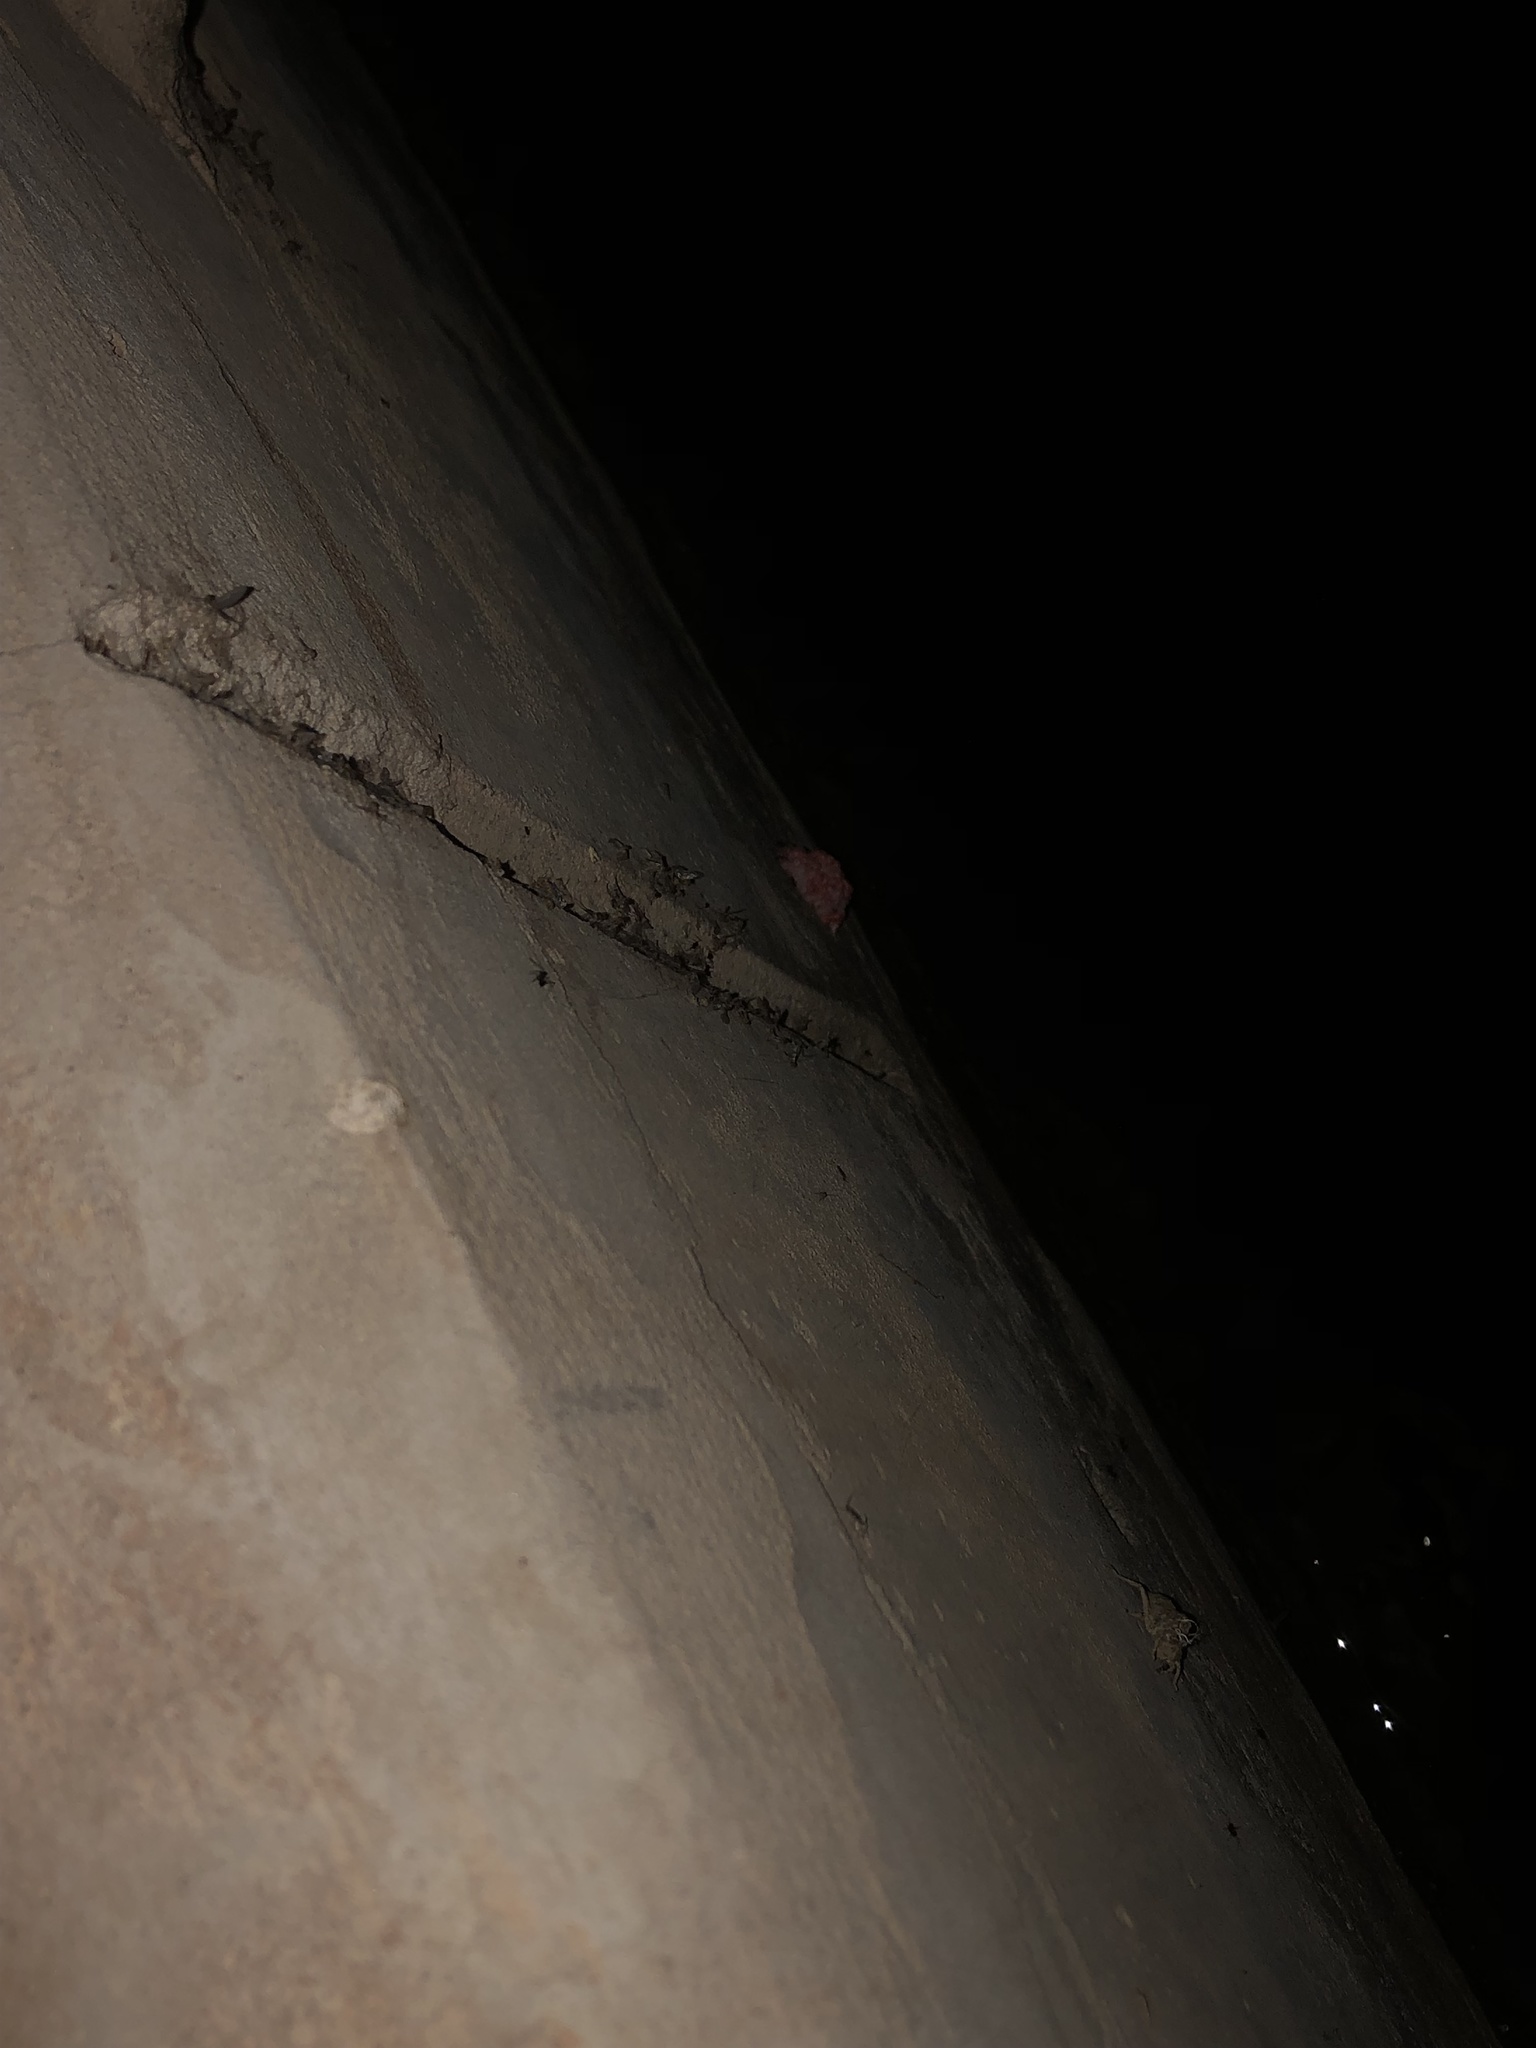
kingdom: Animalia
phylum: Mollusca
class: Gastropoda
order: Architaenioglossa
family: Ampullariidae
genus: Pomacea
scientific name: Pomacea canaliculata
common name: Channeled applesnail
